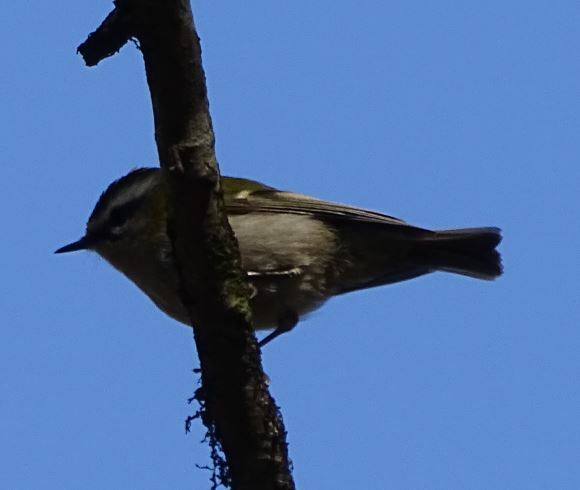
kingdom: Animalia
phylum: Chordata
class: Aves
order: Passeriformes
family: Regulidae
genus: Regulus
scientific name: Regulus ignicapilla
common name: Firecrest
